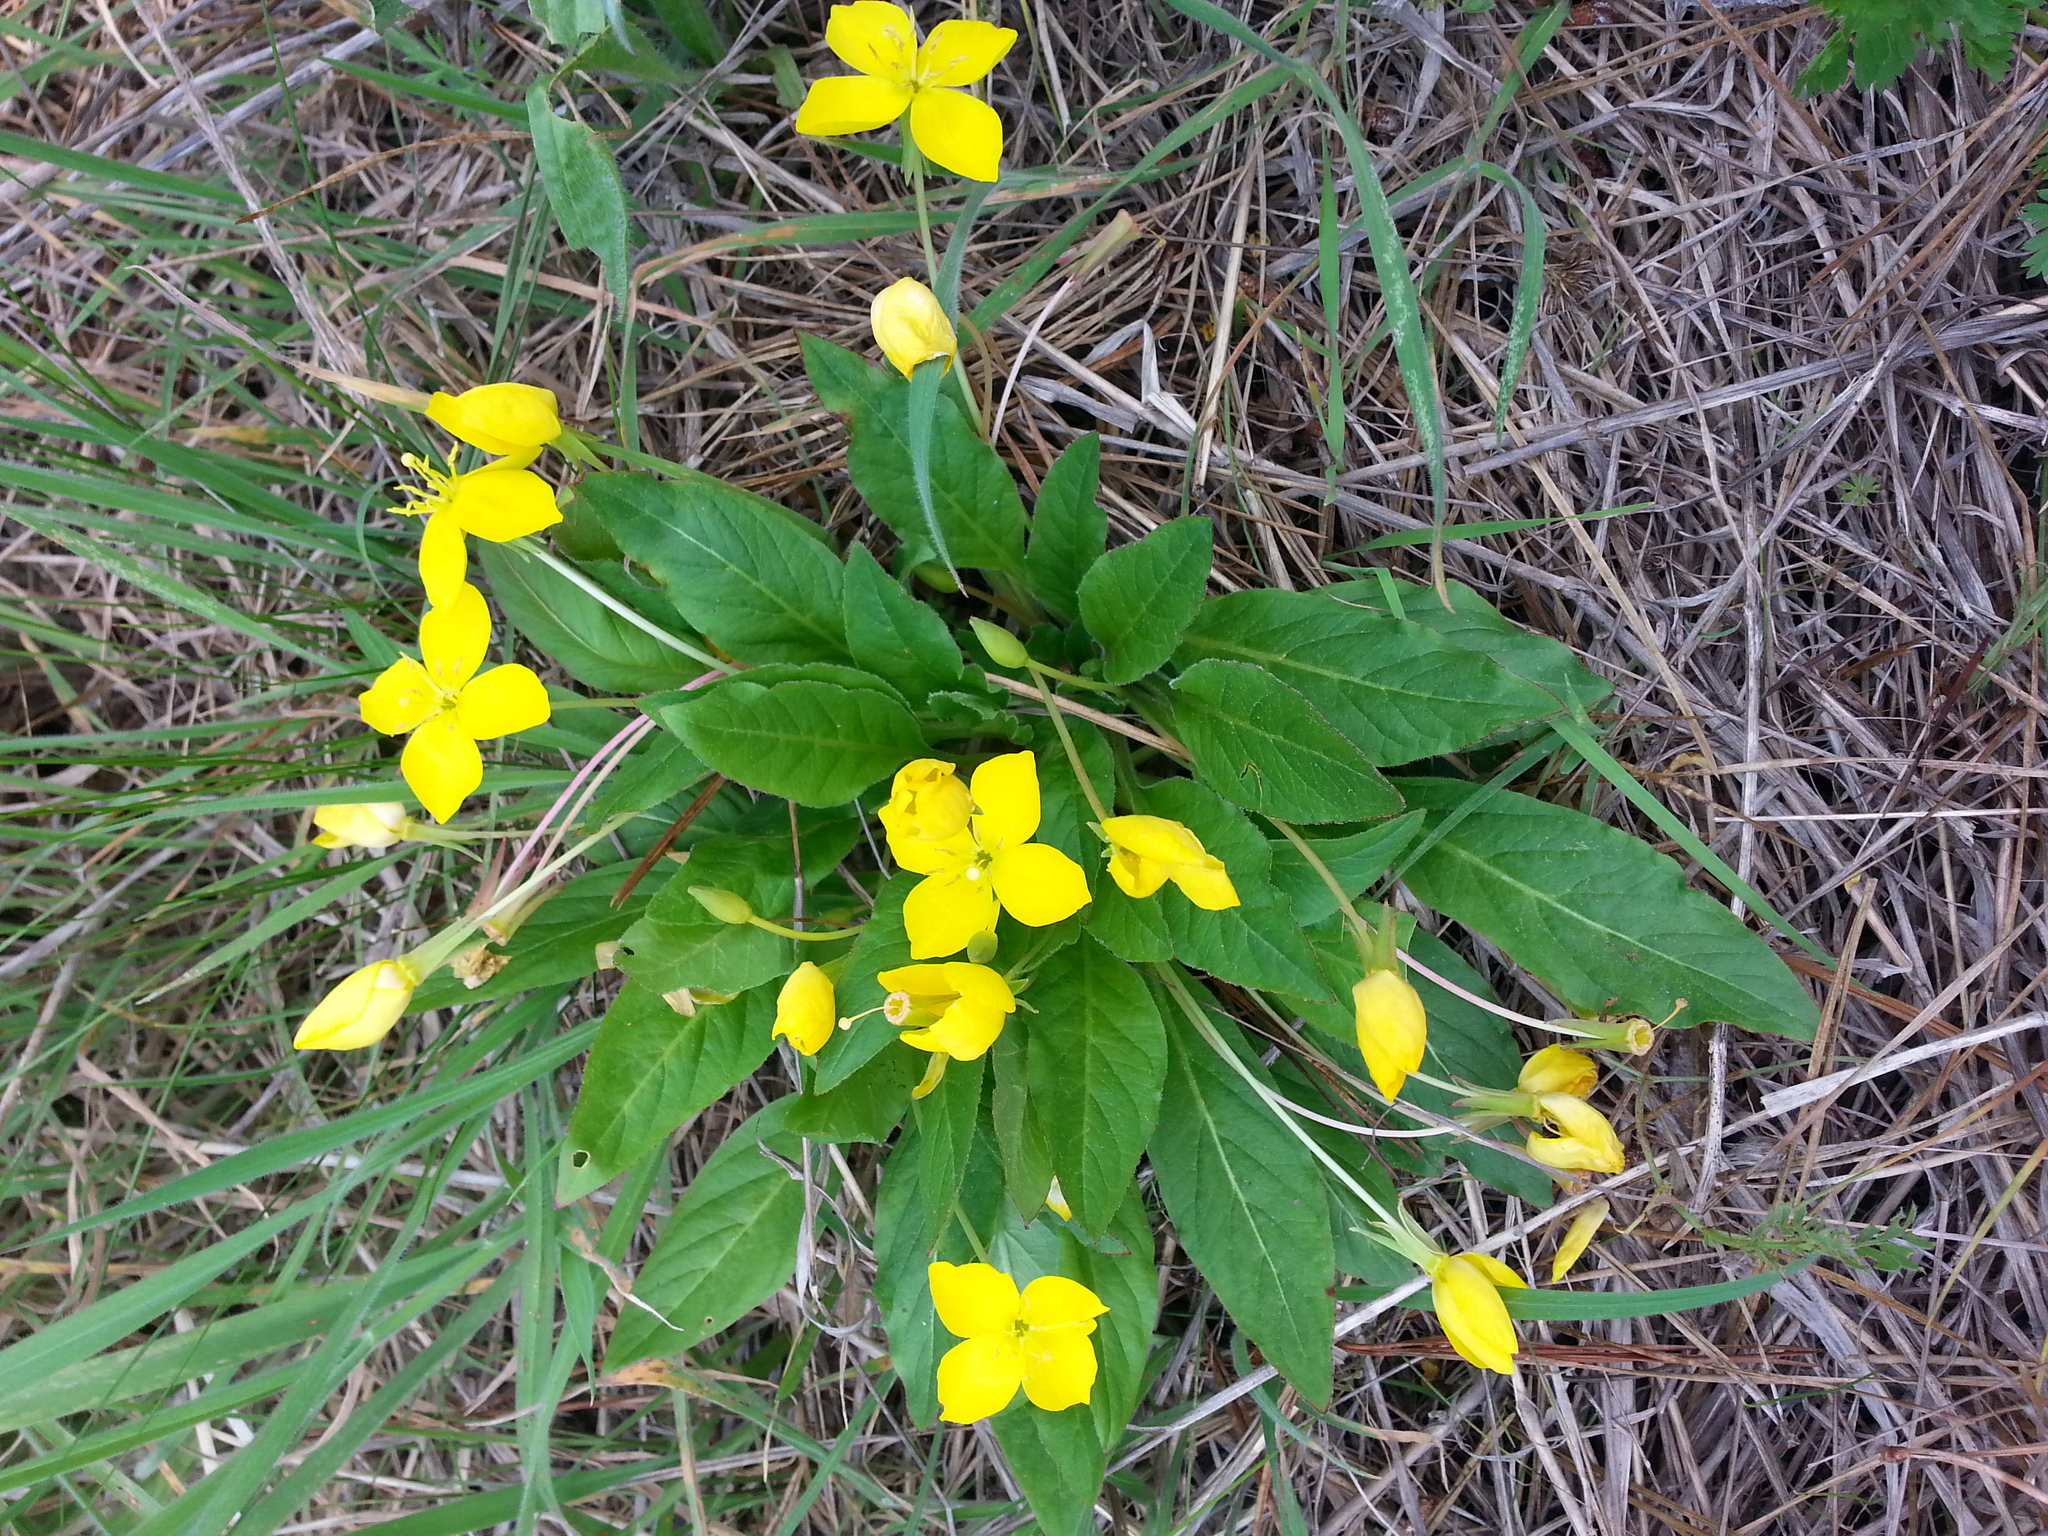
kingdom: Plantae
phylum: Tracheophyta
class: Magnoliopsida
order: Myrtales
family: Onagraceae
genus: Taraxia
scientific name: Taraxia ovata
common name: Goldeneggs
